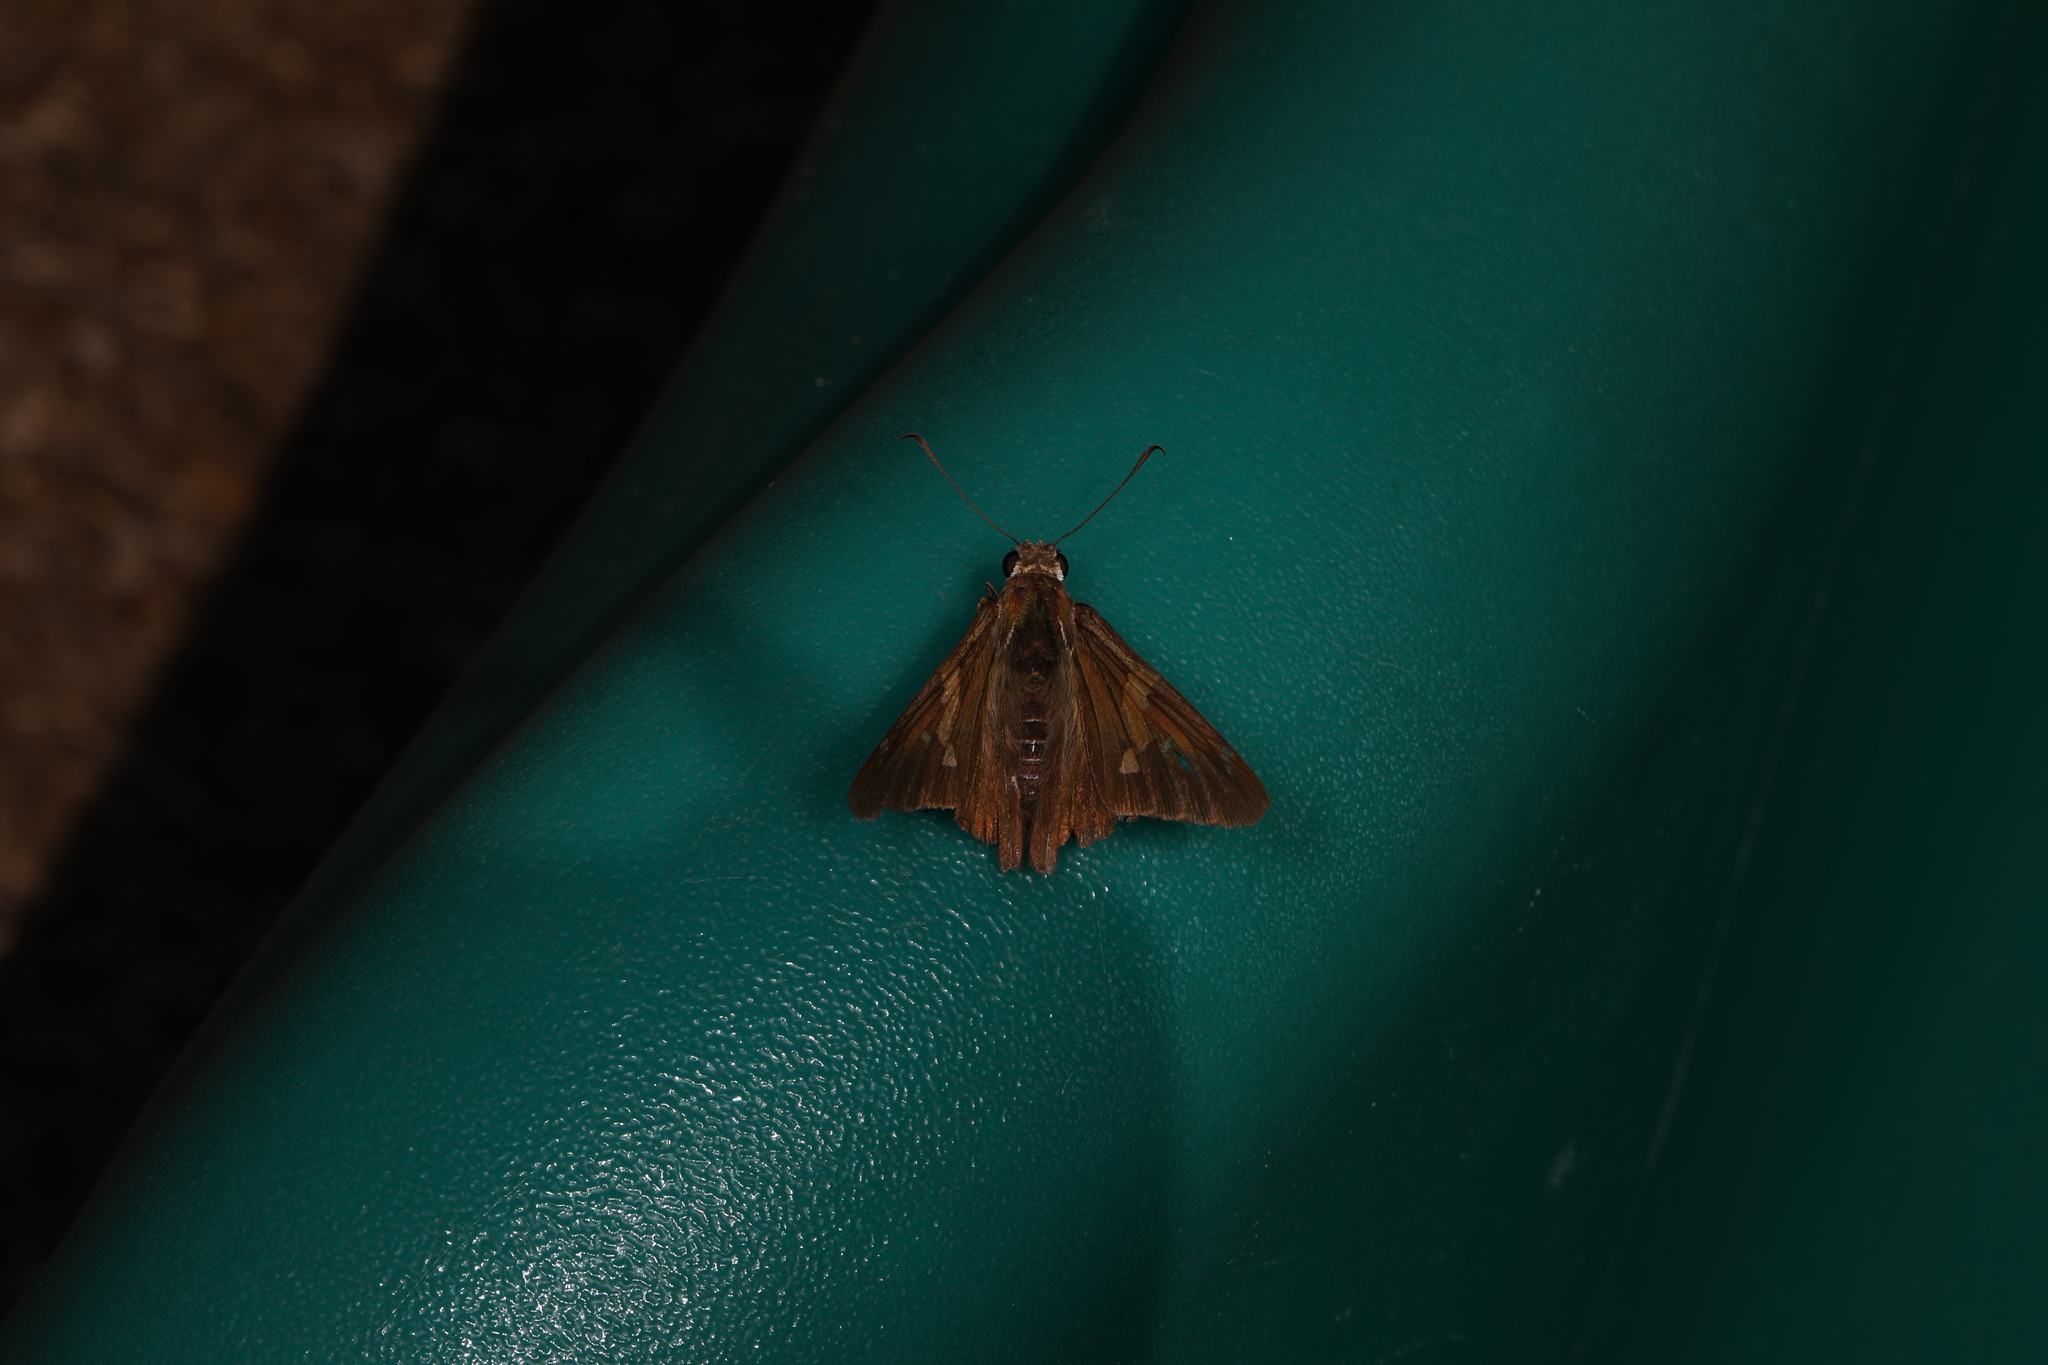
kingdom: Animalia
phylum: Arthropoda
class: Insecta
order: Lepidoptera
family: Hesperiidae
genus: Epargyreus
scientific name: Epargyreus clarus
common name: Silver-spotted skipper
